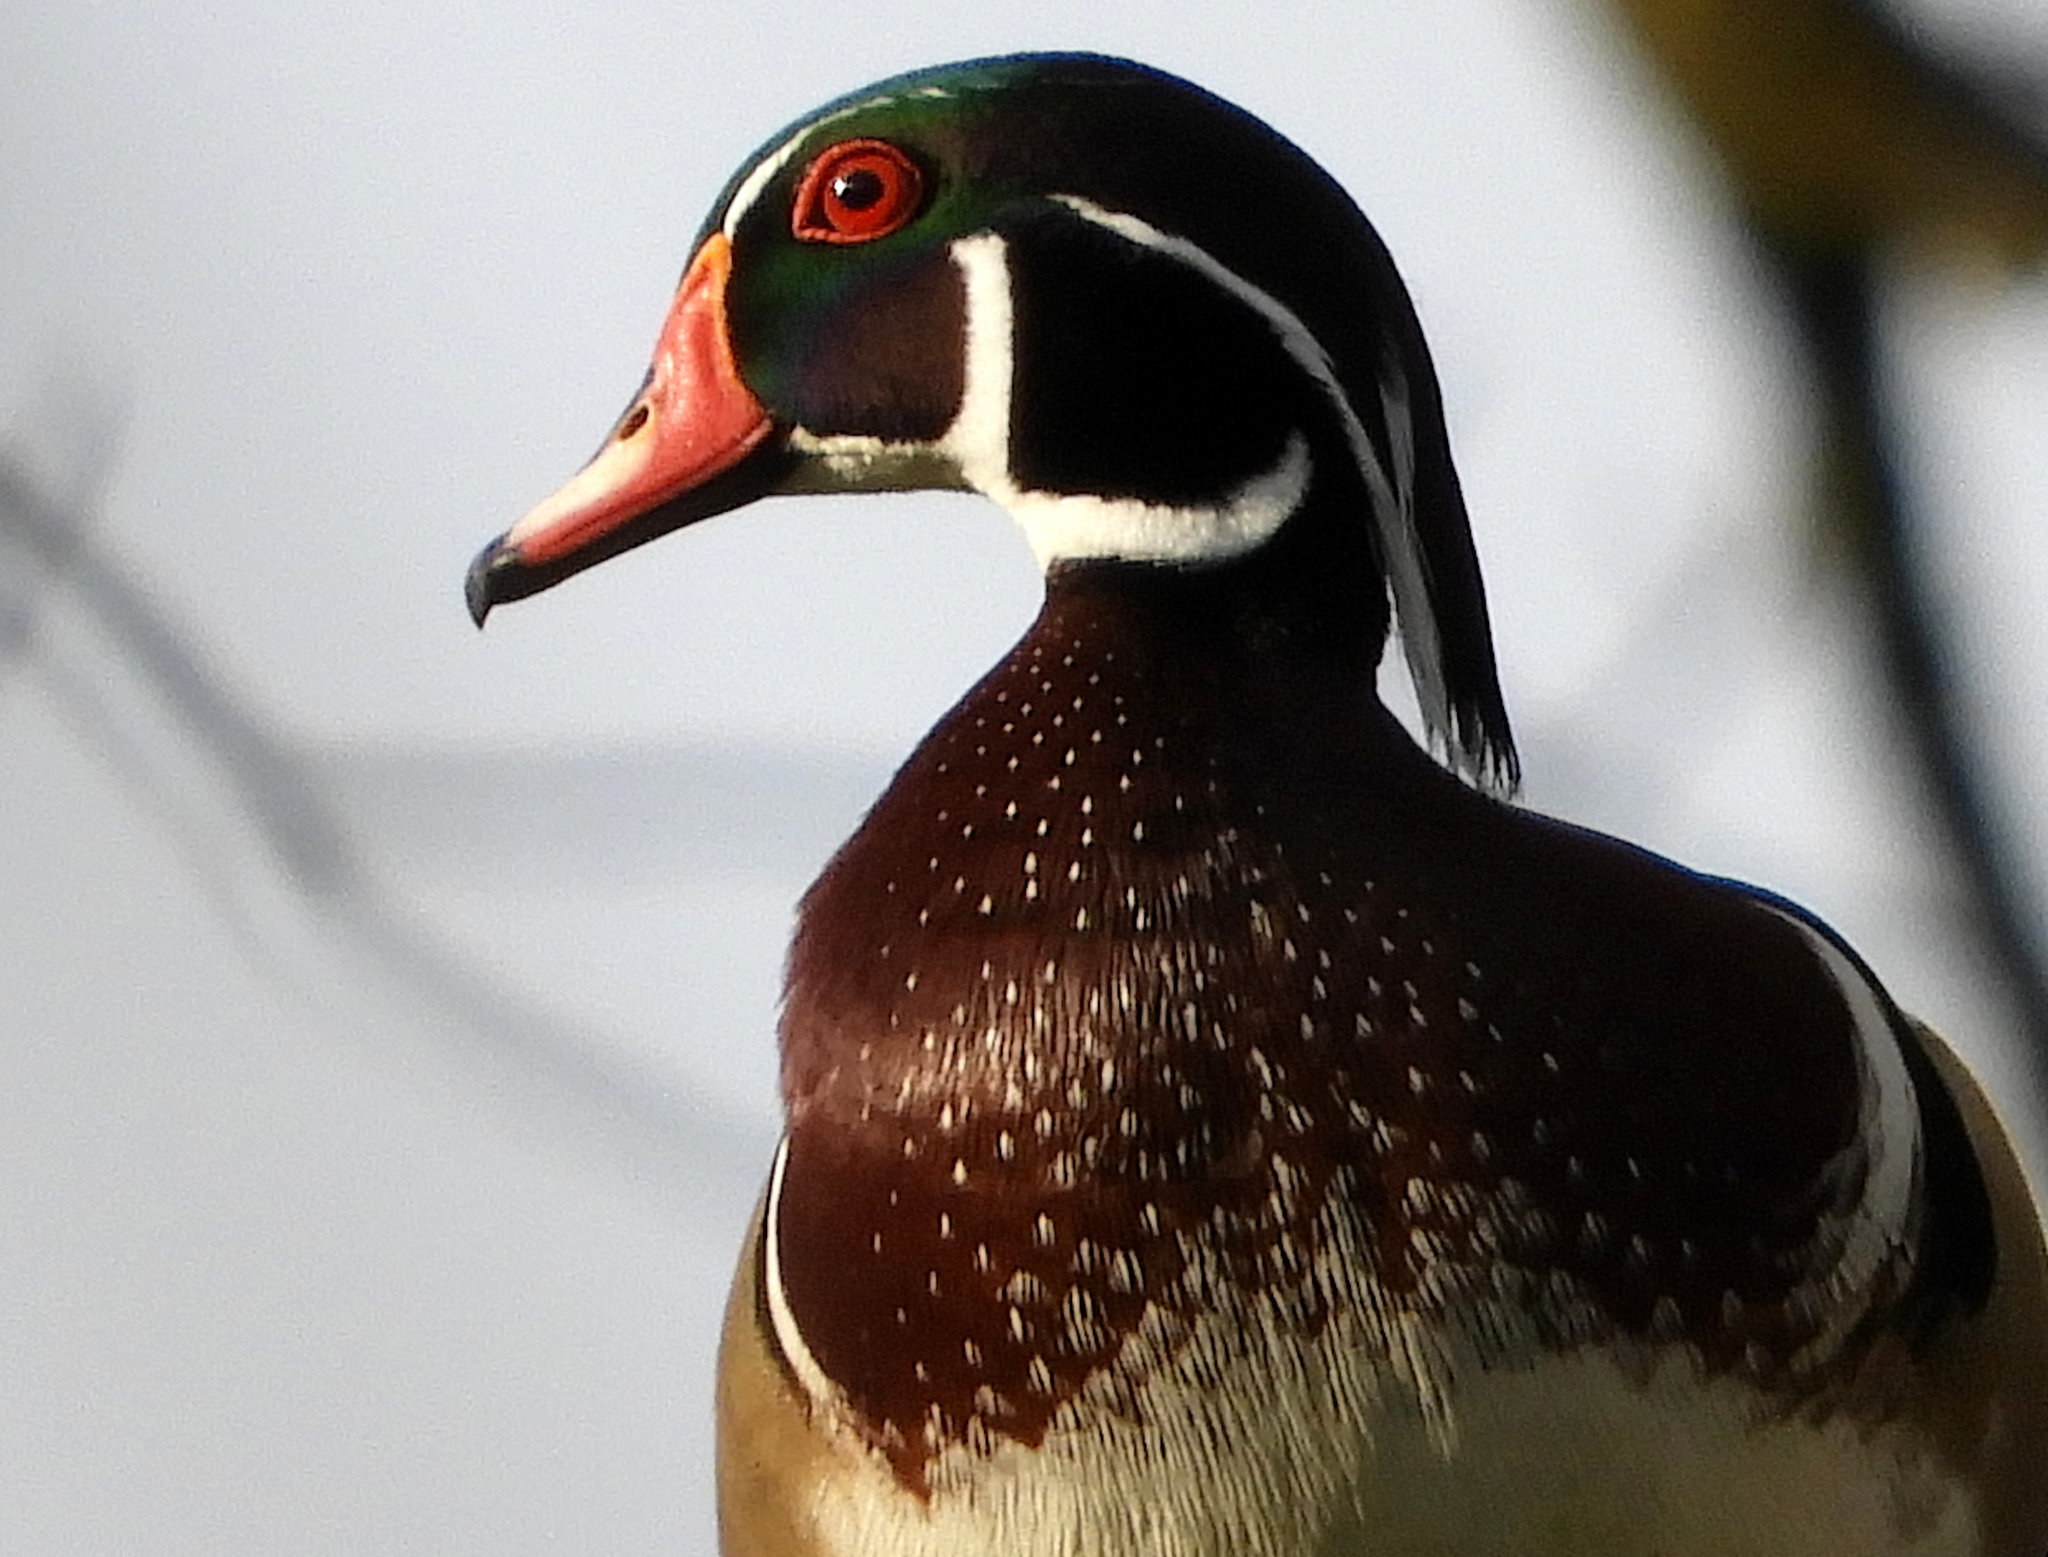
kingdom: Animalia
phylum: Chordata
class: Aves
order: Anseriformes
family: Anatidae
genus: Aix
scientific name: Aix sponsa
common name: Wood duck
